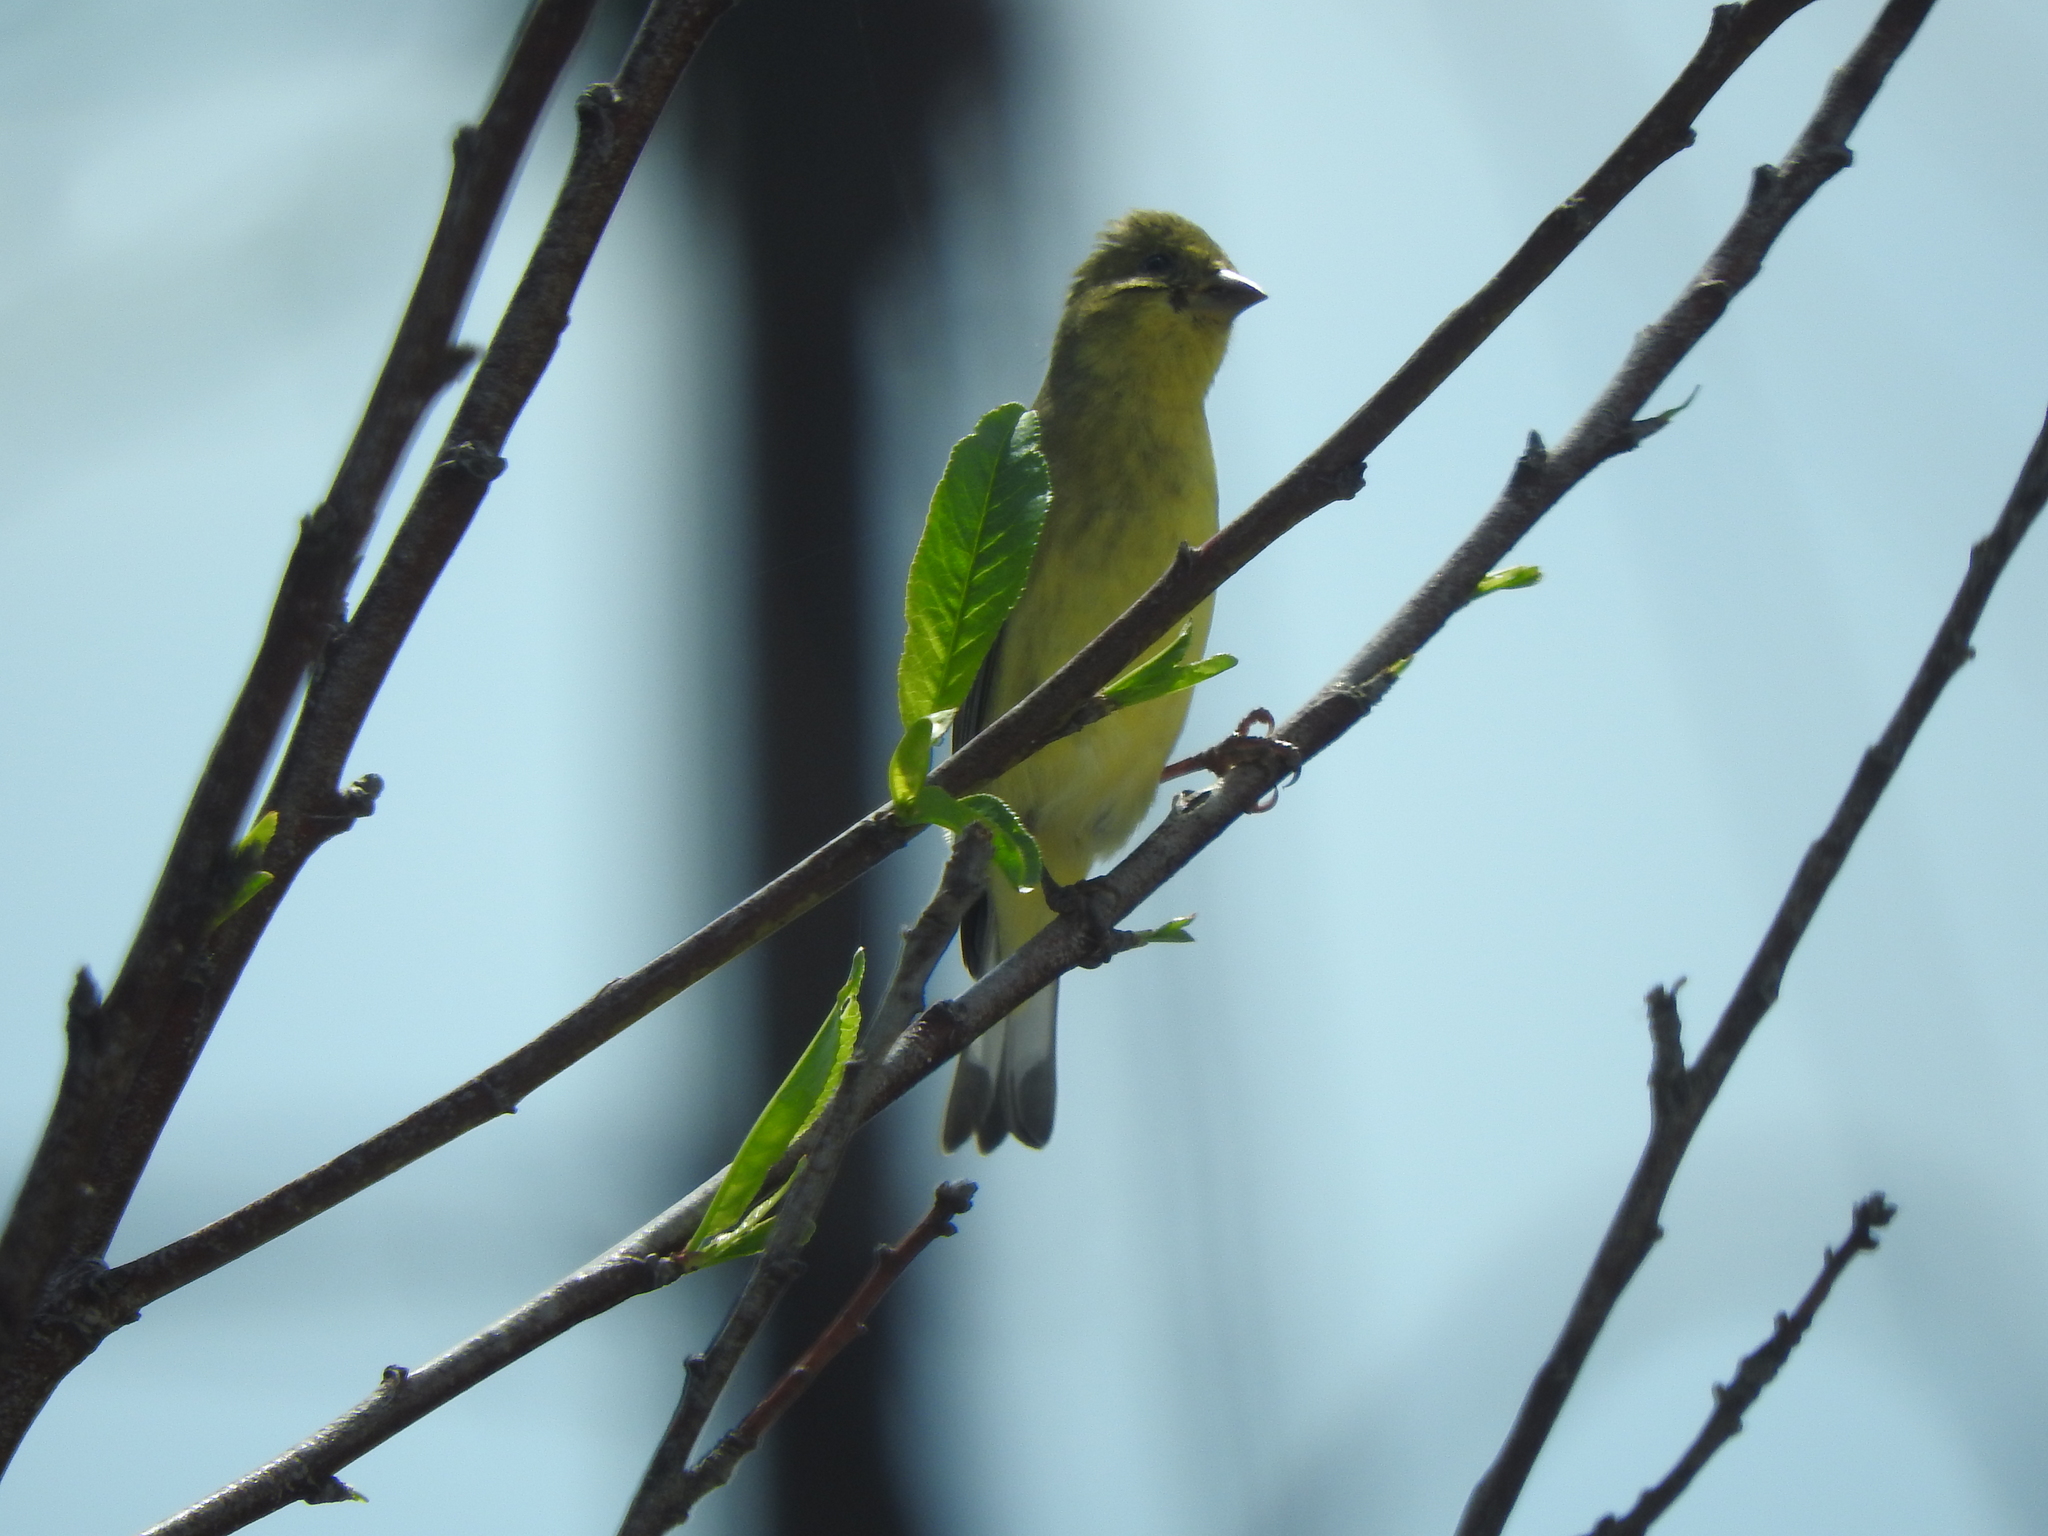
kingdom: Animalia
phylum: Chordata
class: Aves
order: Passeriformes
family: Fringillidae
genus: Spinus
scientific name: Spinus psaltria
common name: Lesser goldfinch
